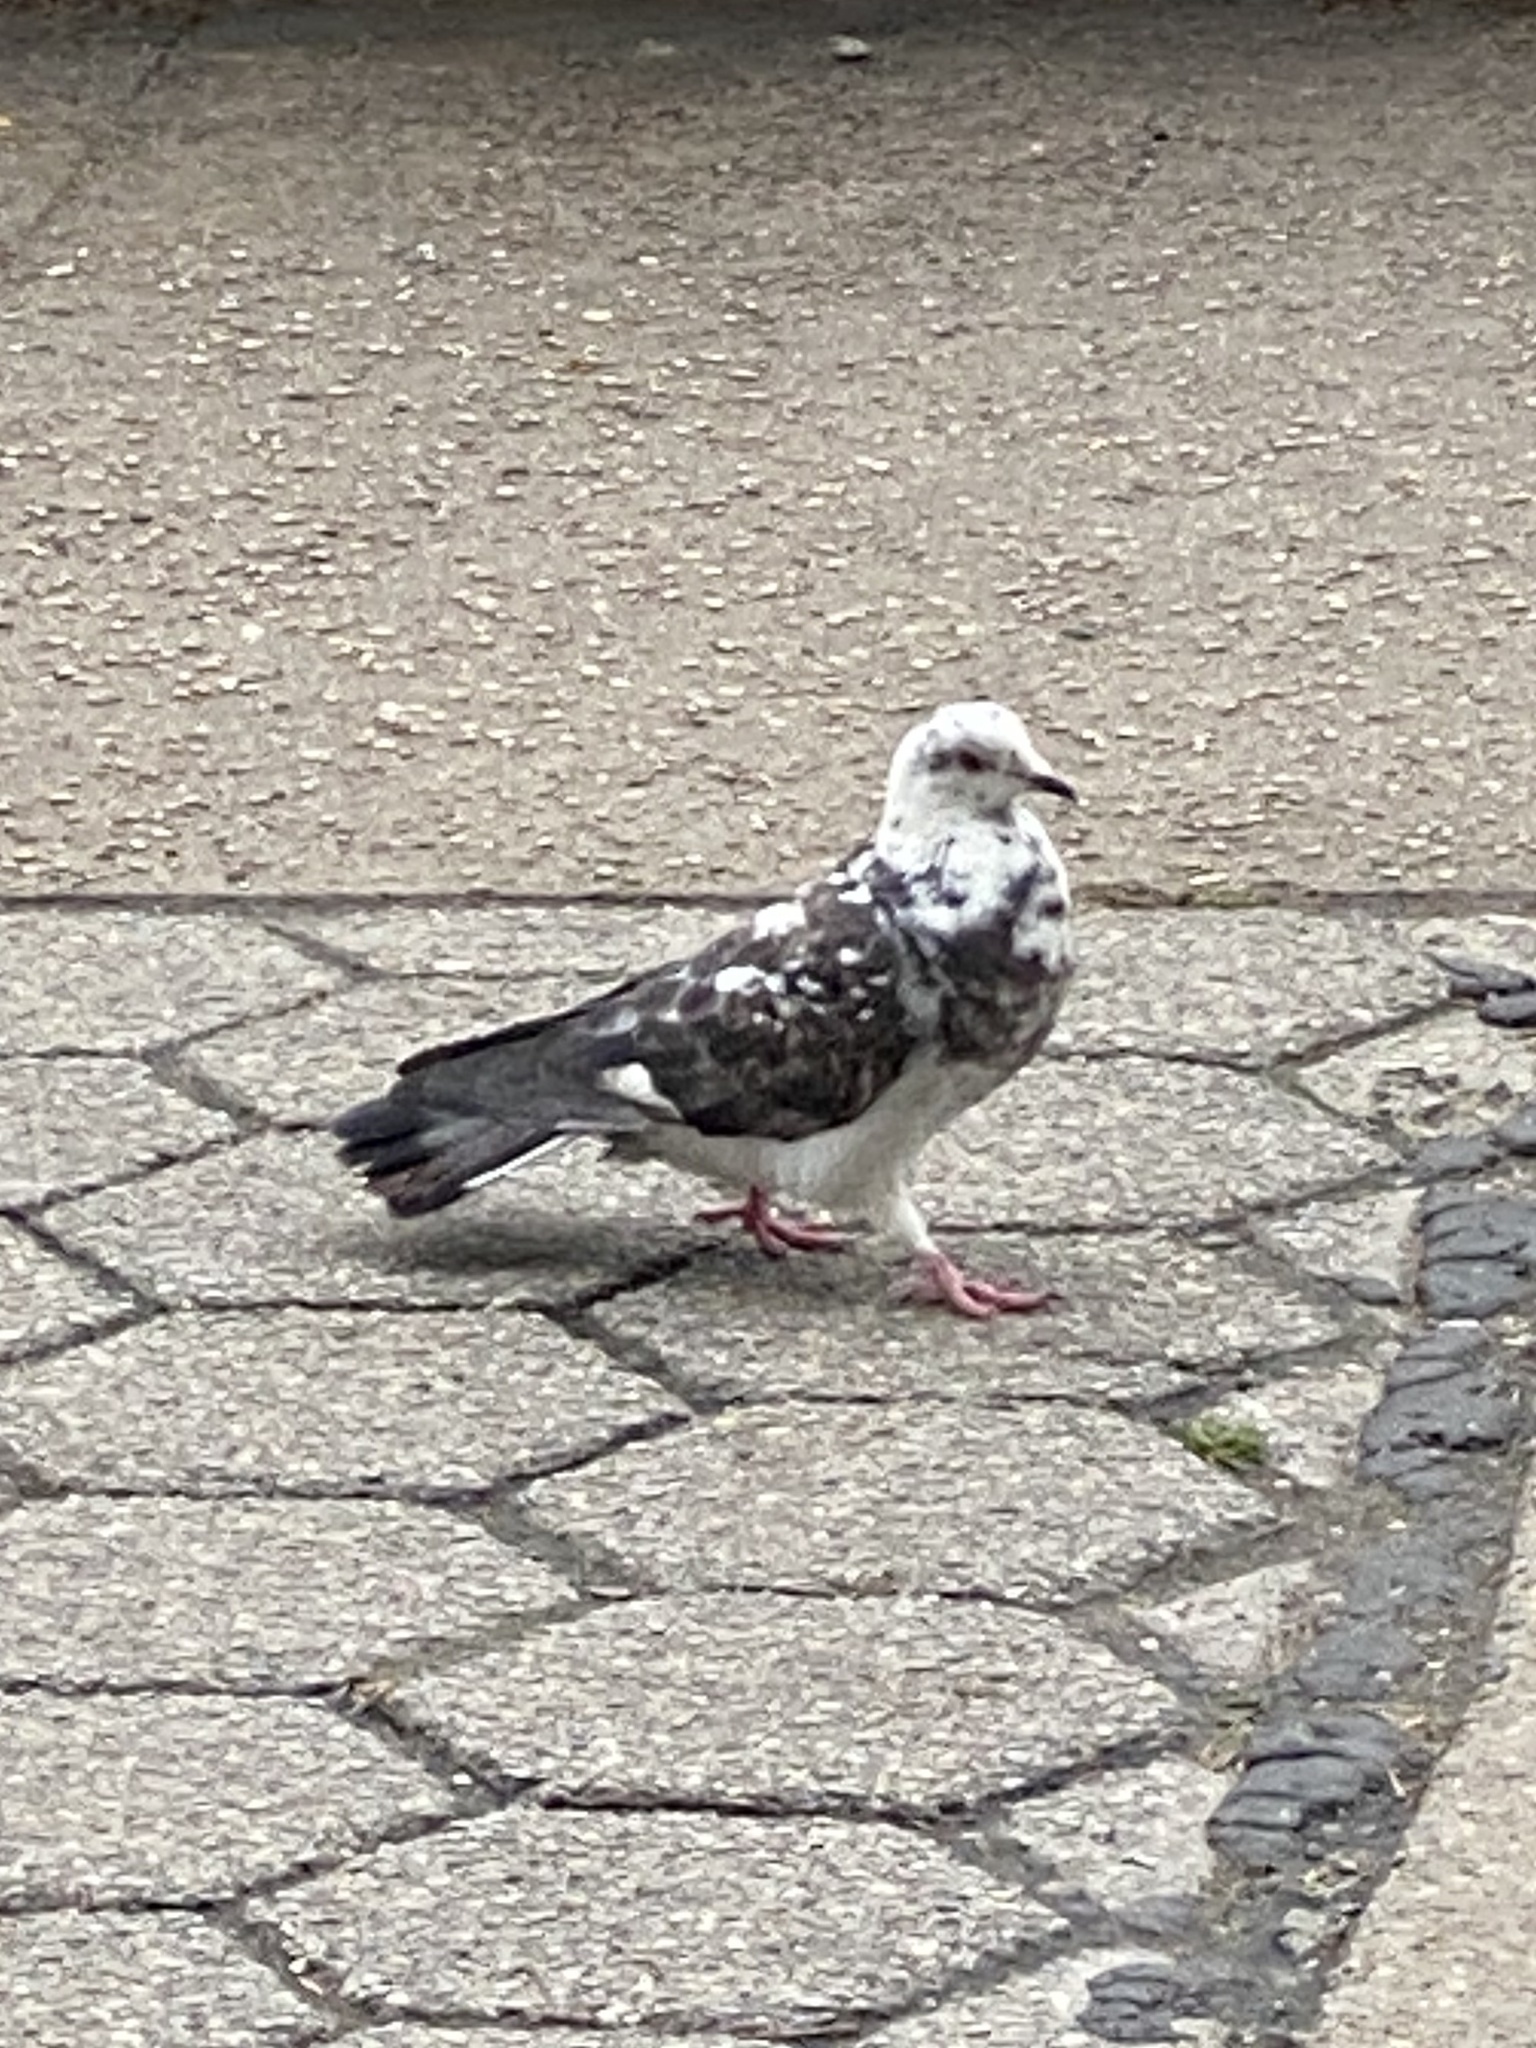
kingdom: Animalia
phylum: Chordata
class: Aves
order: Columbiformes
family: Columbidae
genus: Columba
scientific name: Columba livia
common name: Rock pigeon
